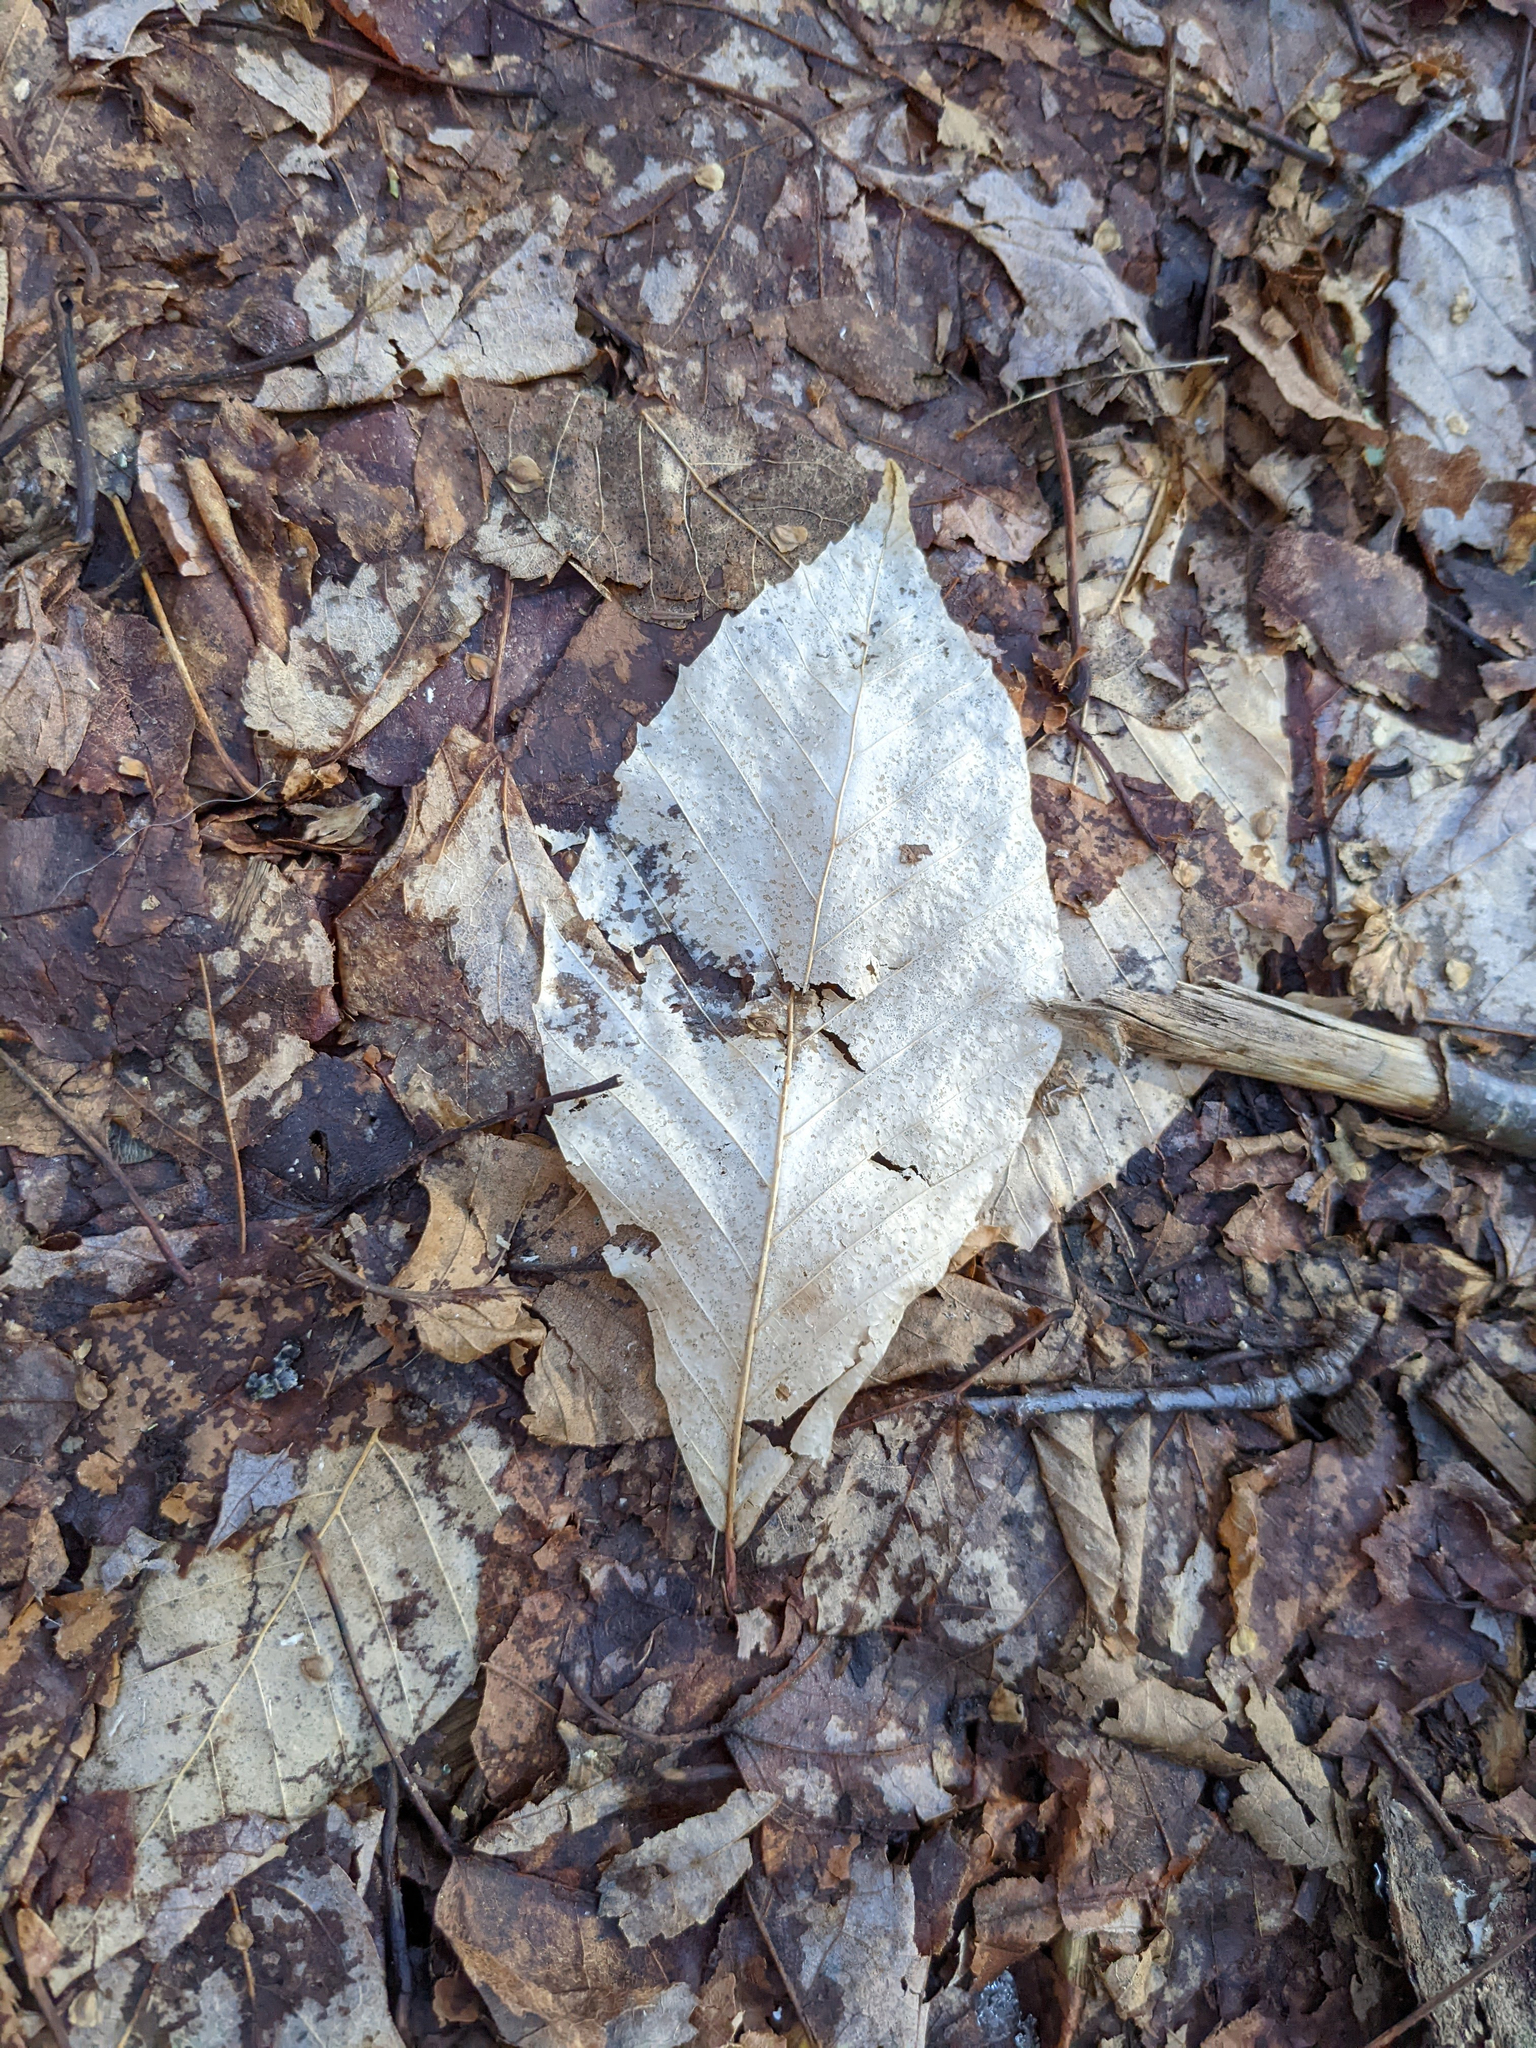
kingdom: Plantae
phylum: Tracheophyta
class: Magnoliopsida
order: Fagales
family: Fagaceae
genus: Fagus
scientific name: Fagus grandifolia
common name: American beech
